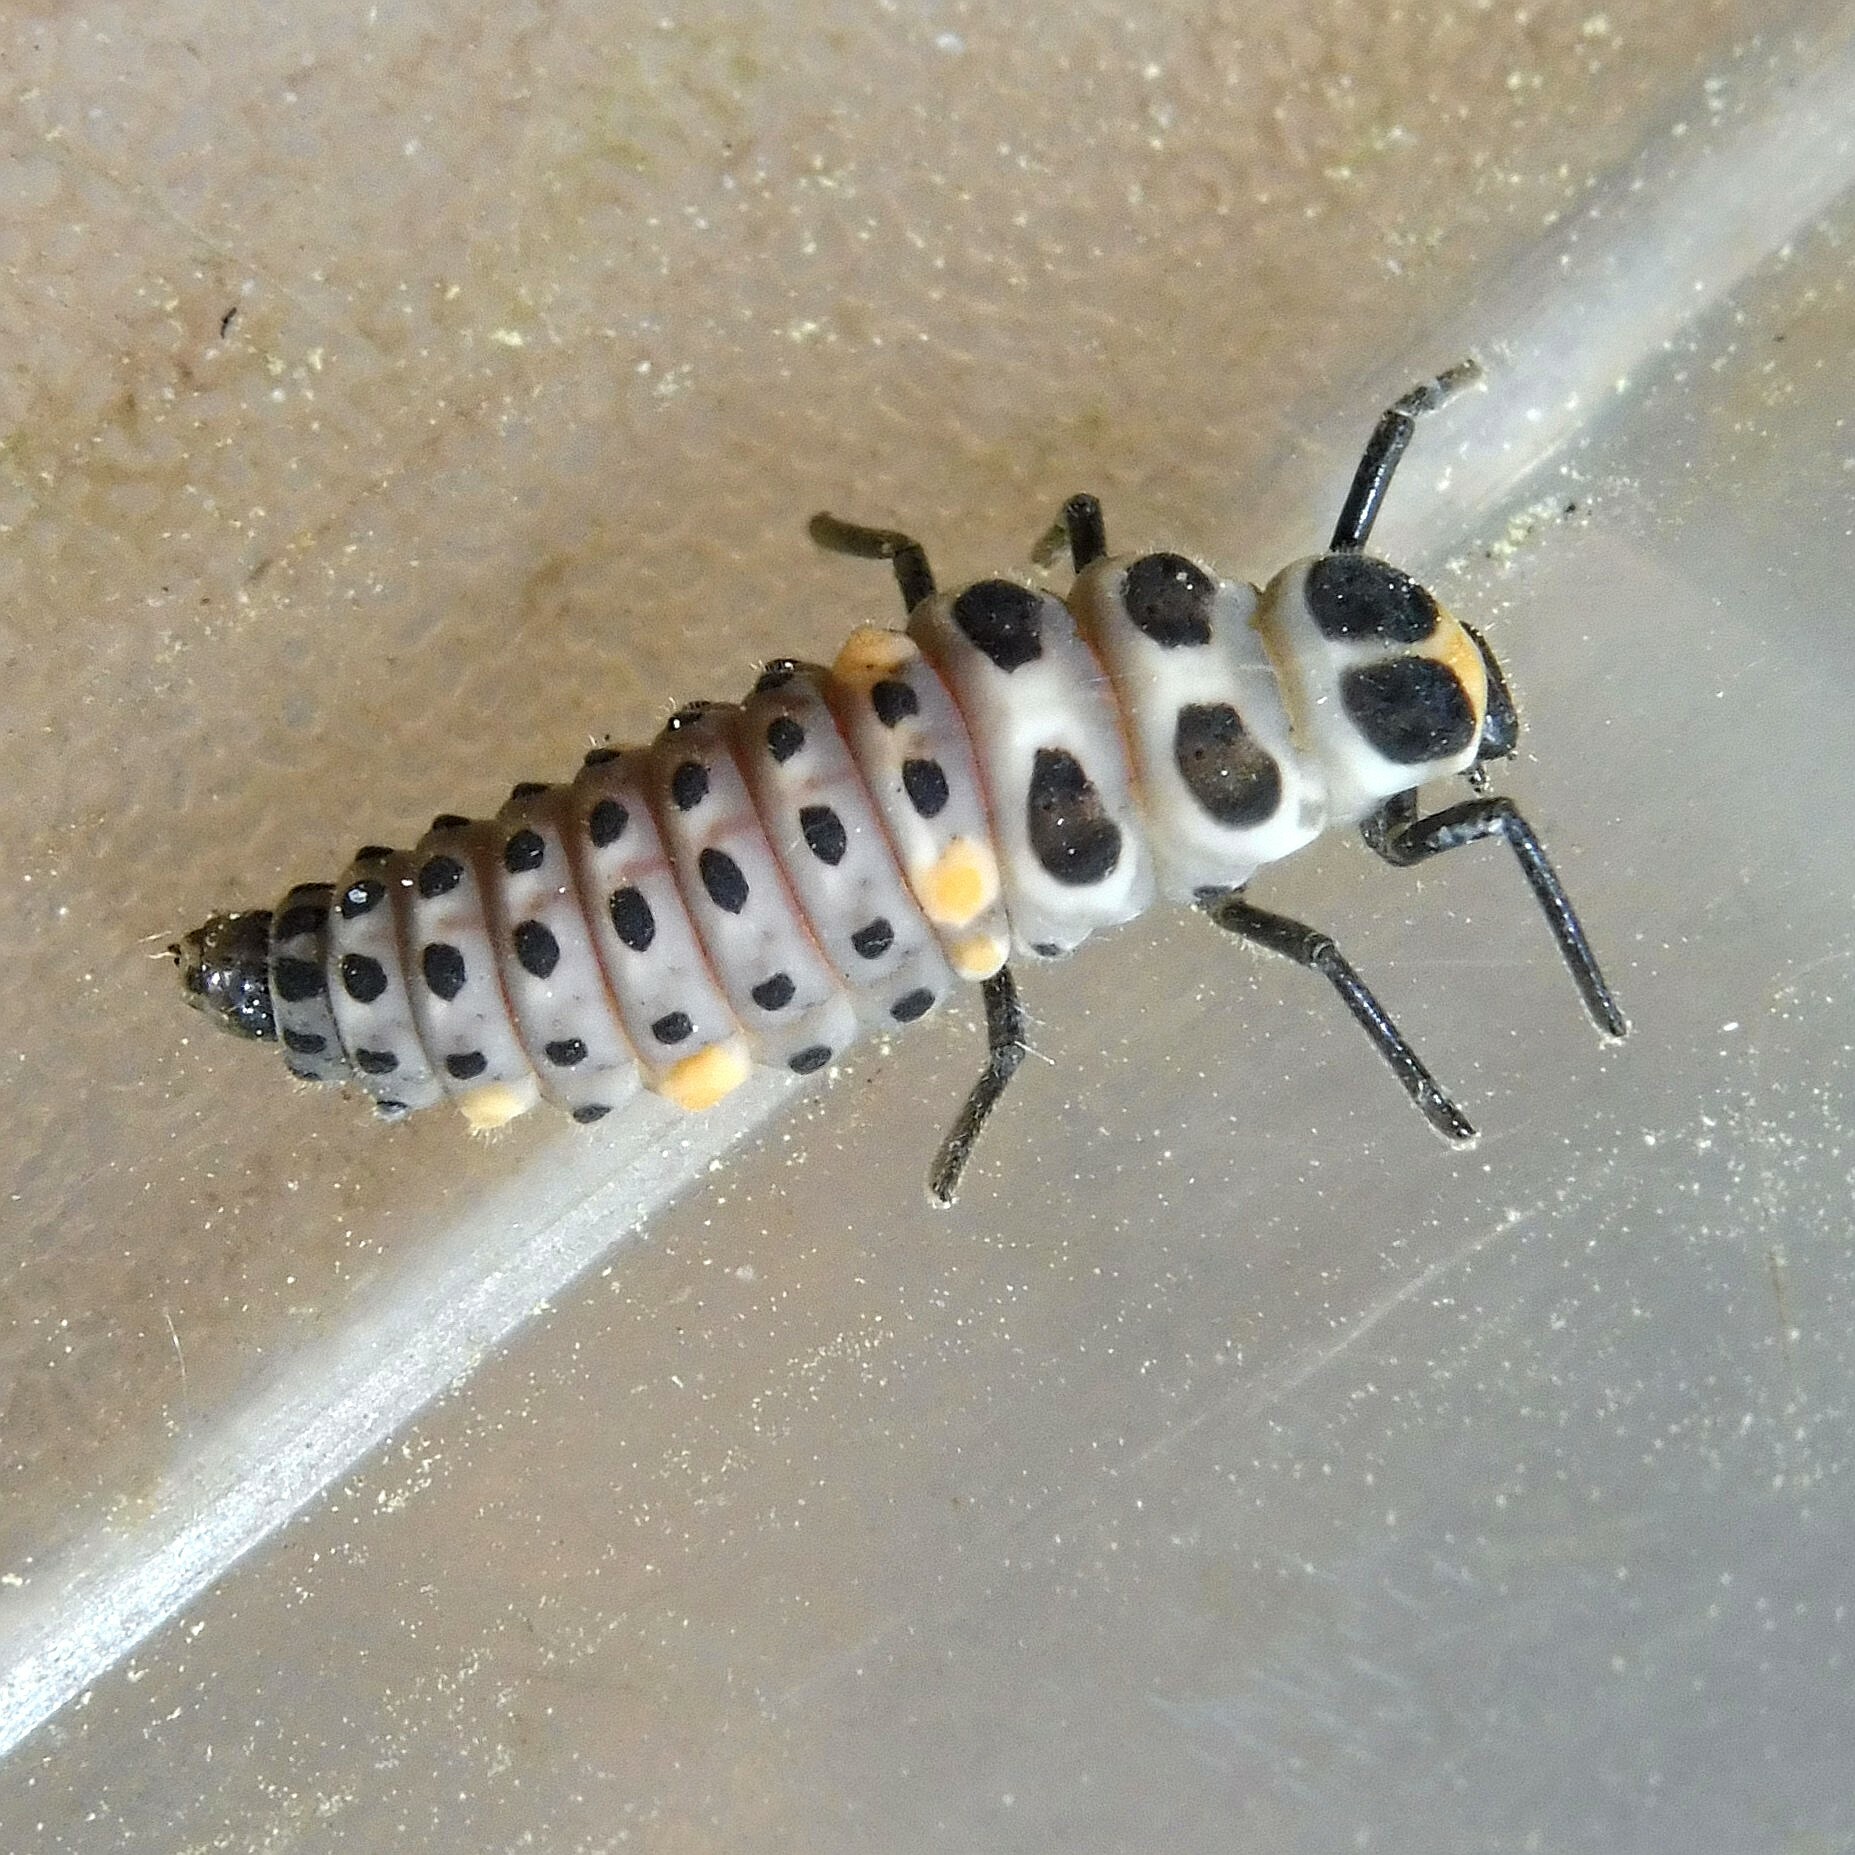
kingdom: Animalia
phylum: Arthropoda
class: Insecta
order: Coleoptera
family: Coccinellidae
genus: Myzia
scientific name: Myzia oblongoguttata
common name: Striped ladybird
